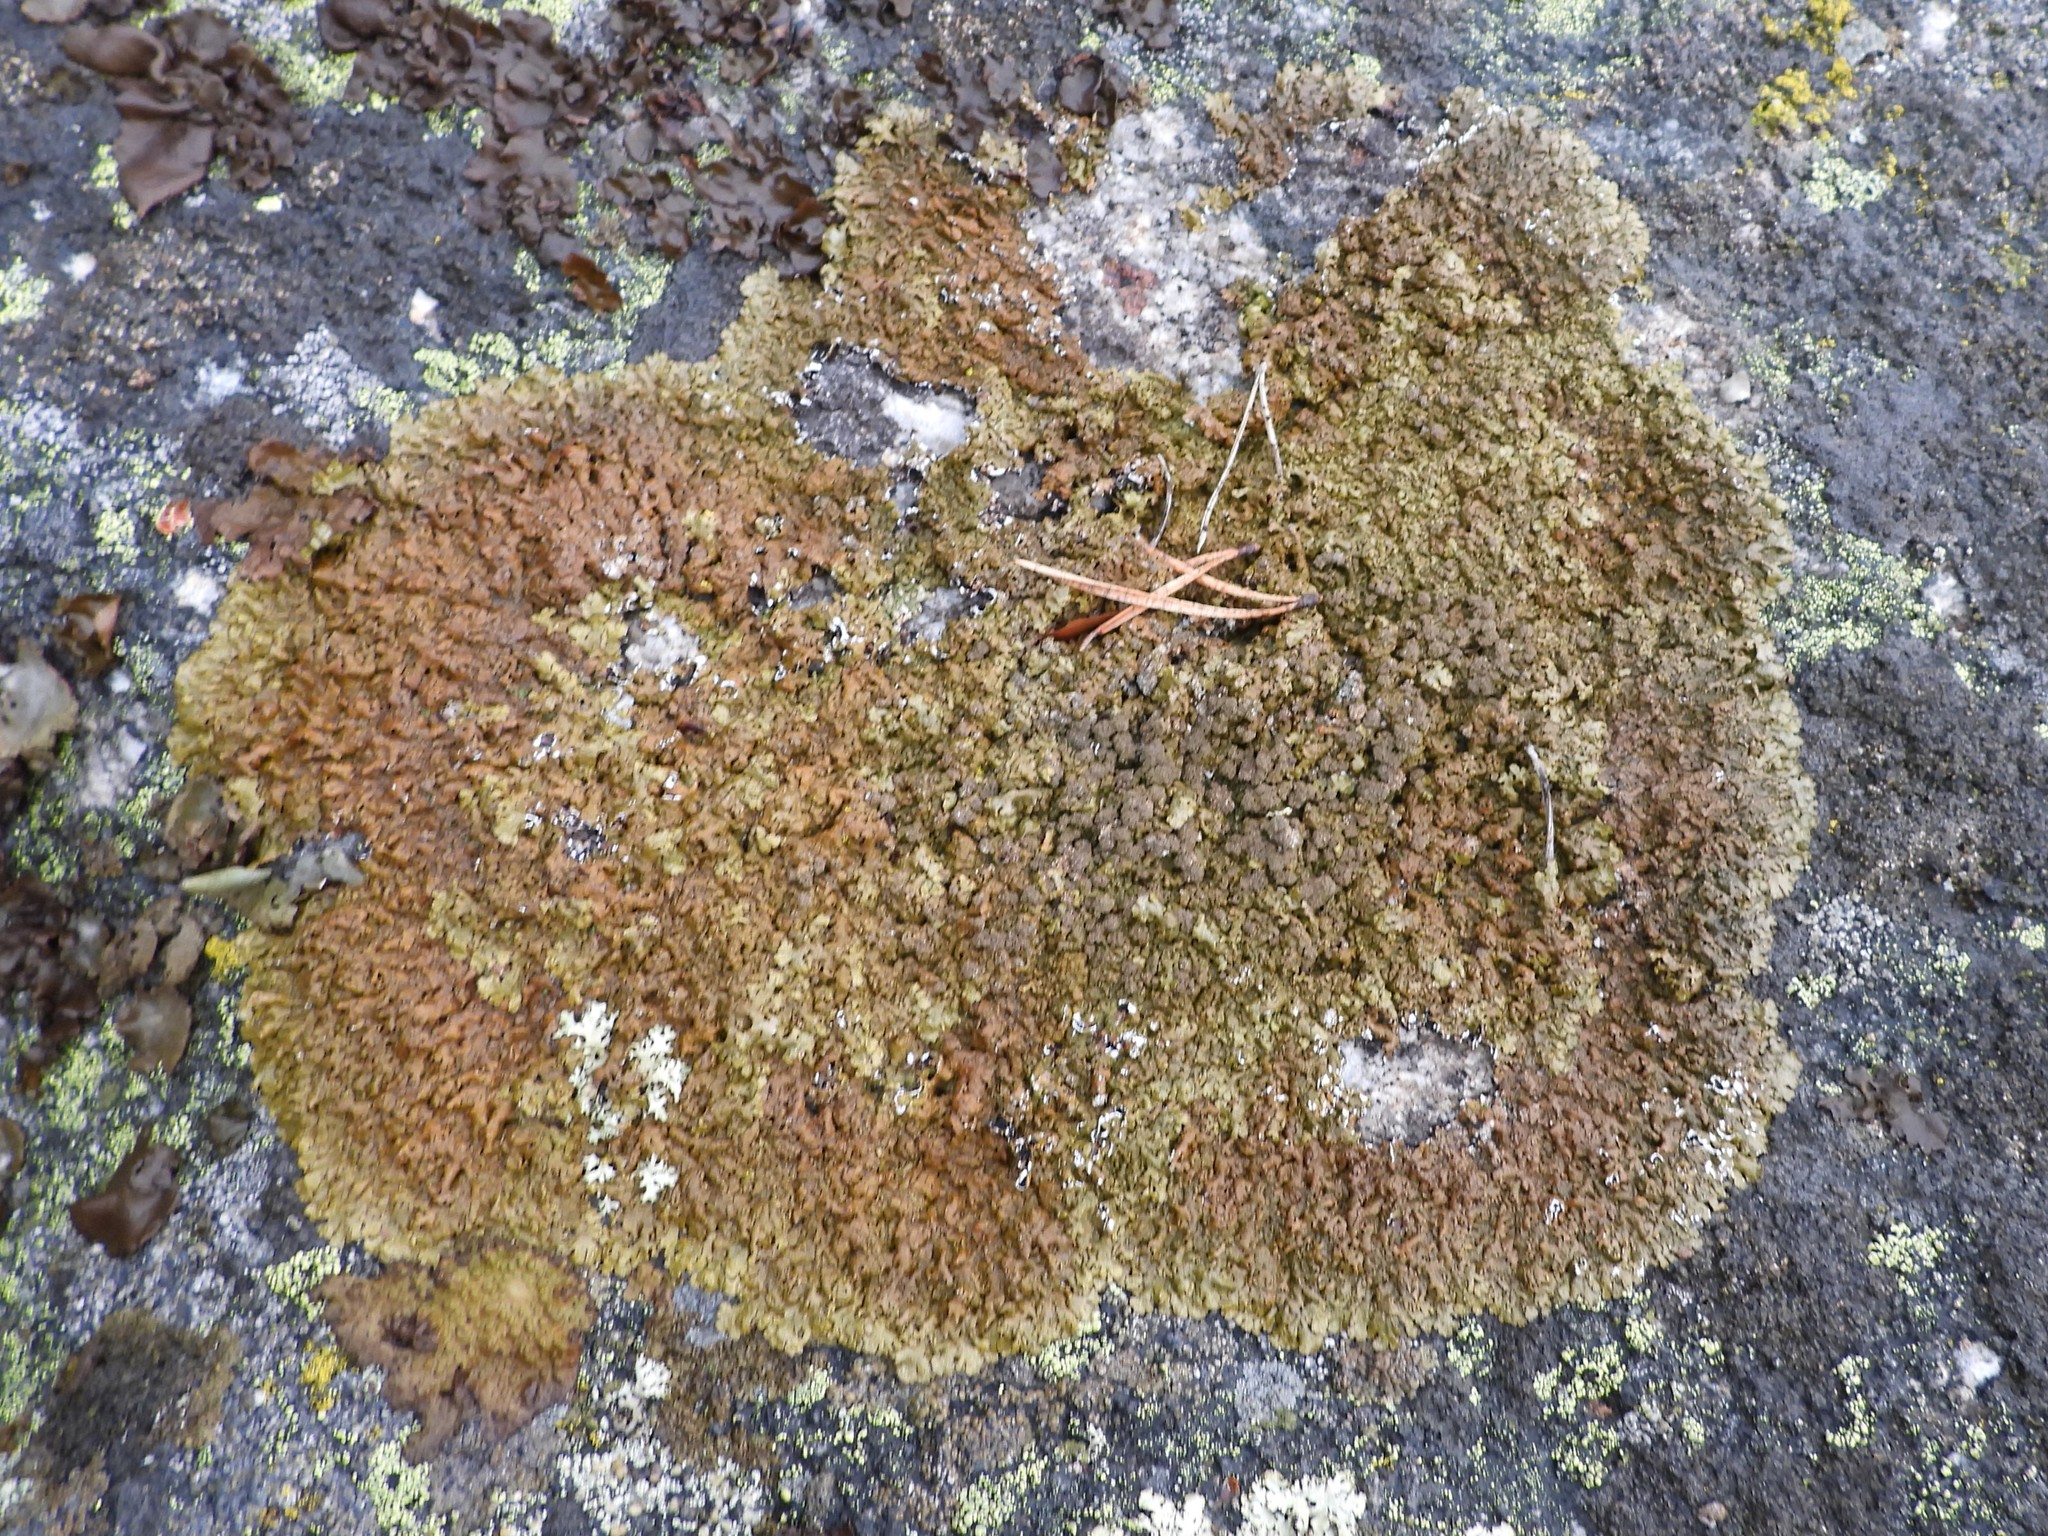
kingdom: Fungi
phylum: Ascomycota
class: Lecanoromycetes
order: Lecanorales
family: Parmeliaceae
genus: Xanthoparmelia
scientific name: Xanthoparmelia loxodes
